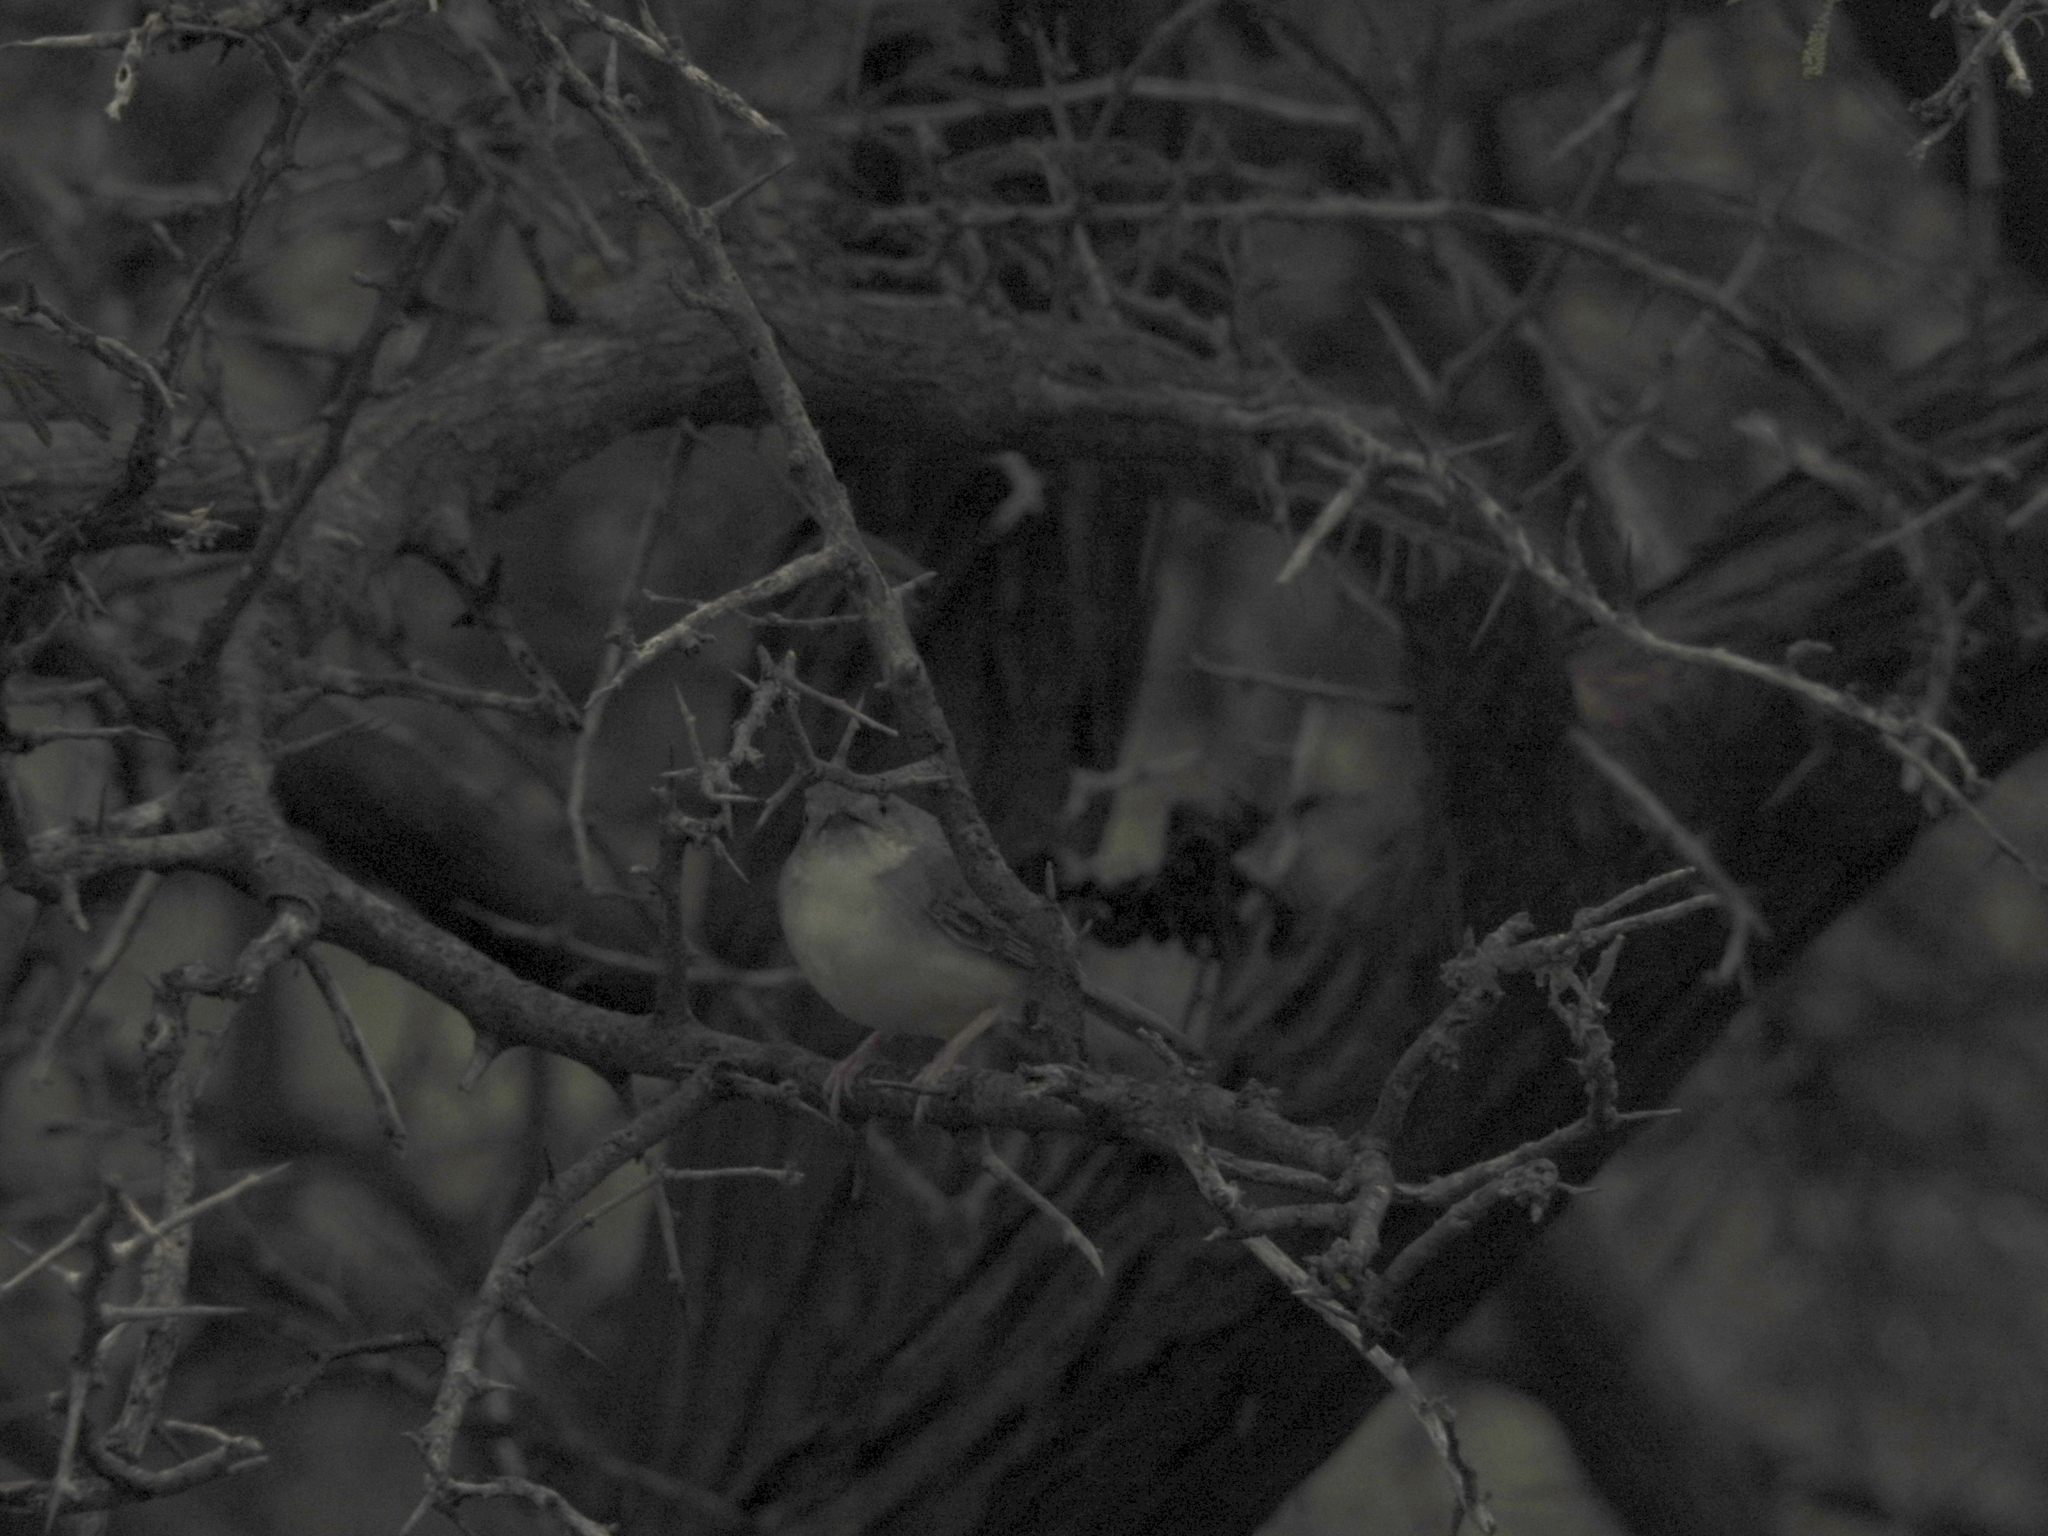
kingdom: Animalia
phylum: Chordata
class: Aves
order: Passeriformes
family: Cisticolidae
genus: Prinia
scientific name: Prinia sylvatica
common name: Jungle prinia
